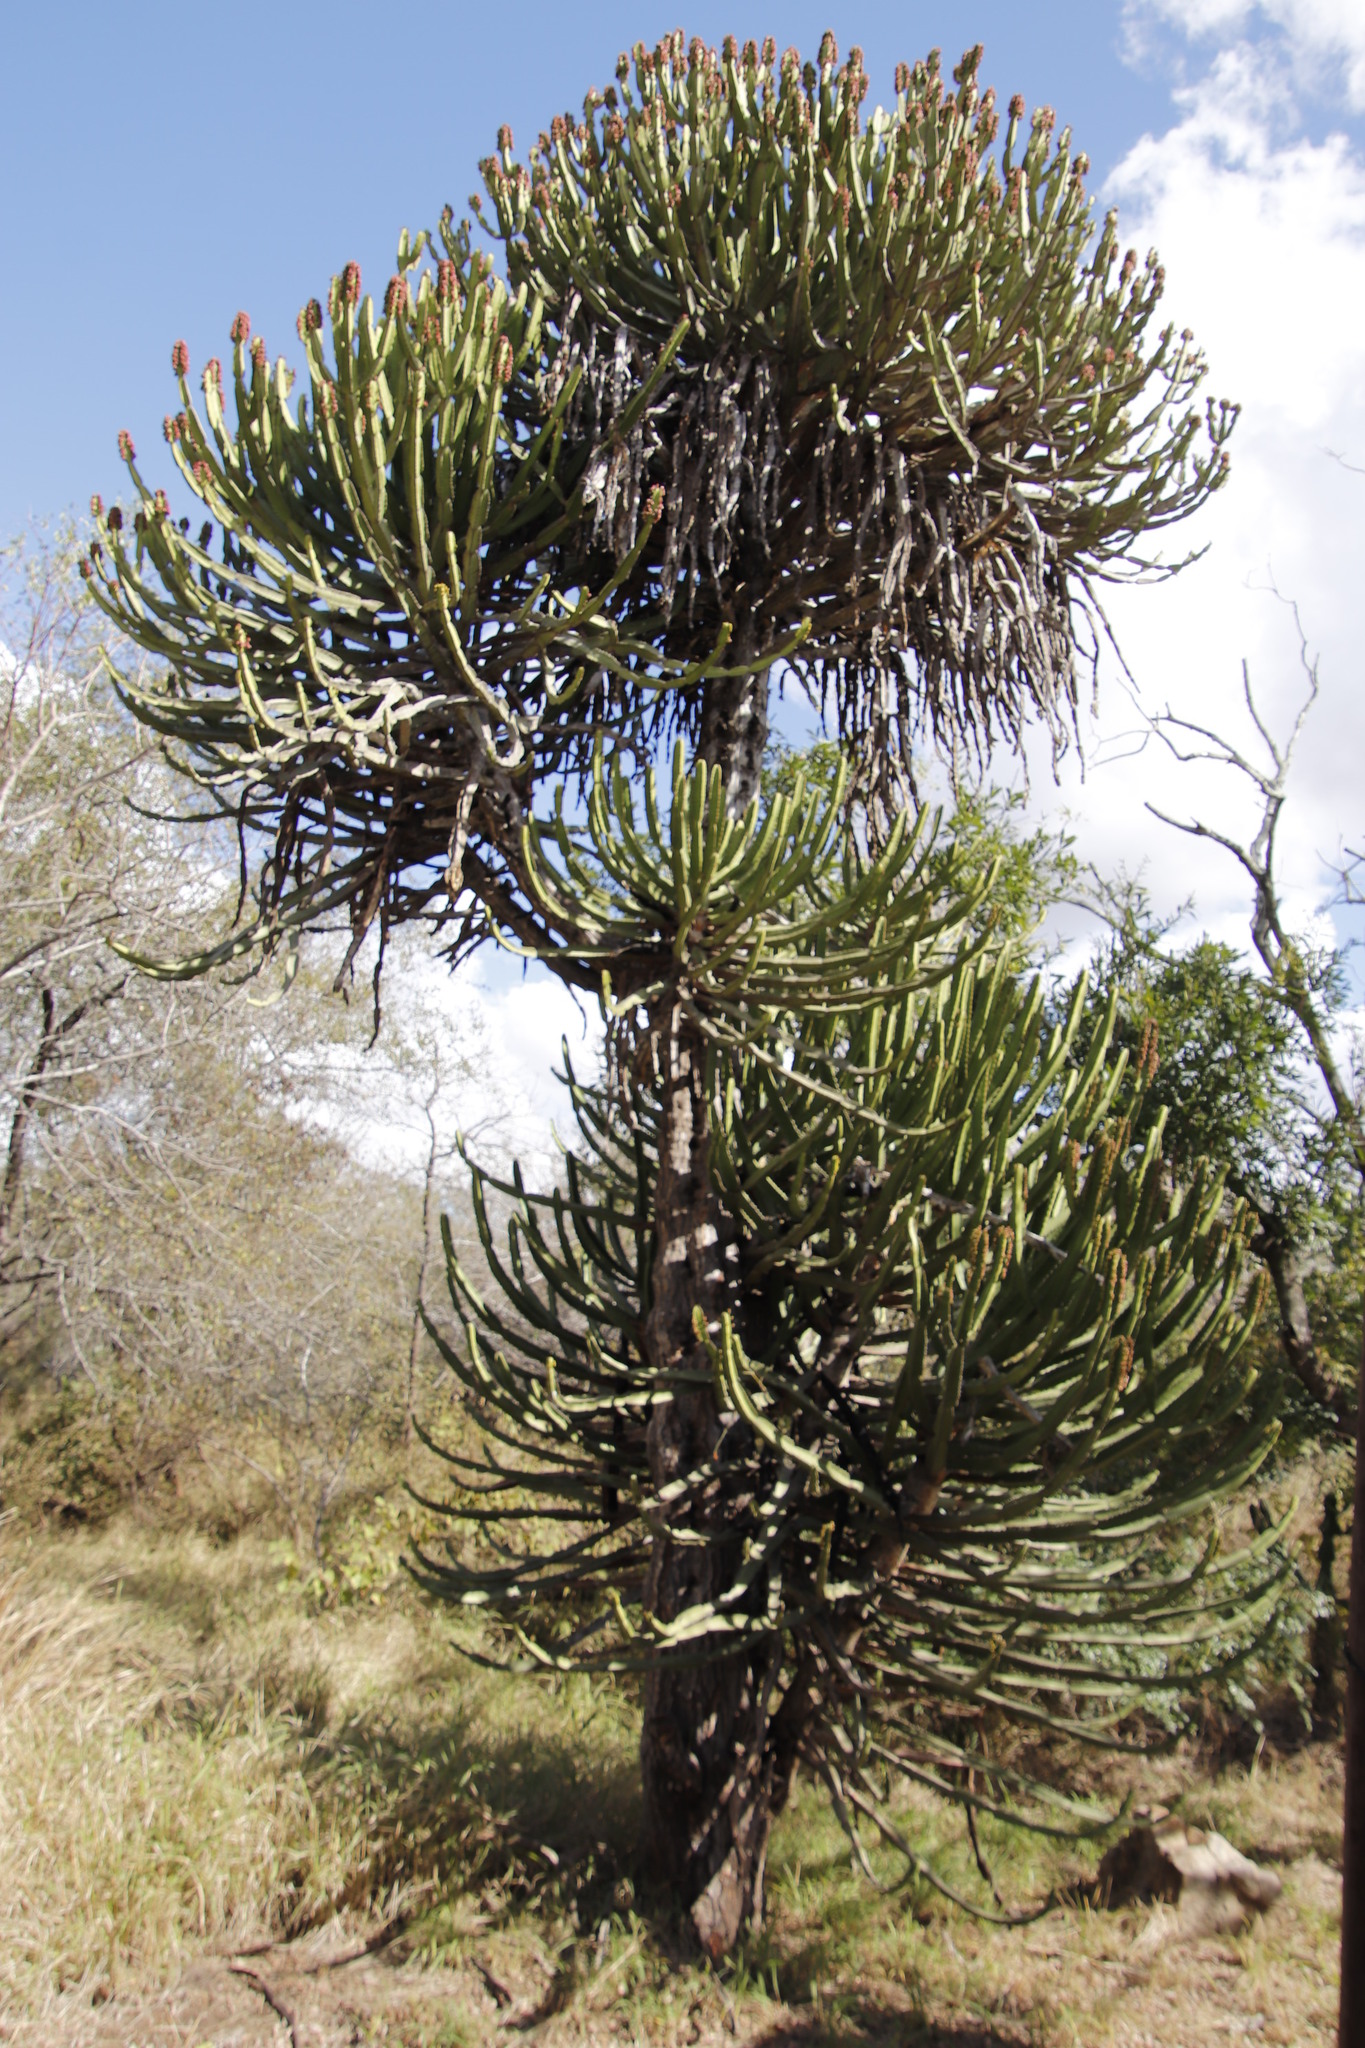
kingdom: Plantae
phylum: Tracheophyta
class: Magnoliopsida
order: Malpighiales
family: Euphorbiaceae
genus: Euphorbia
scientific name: Euphorbia confinalis
